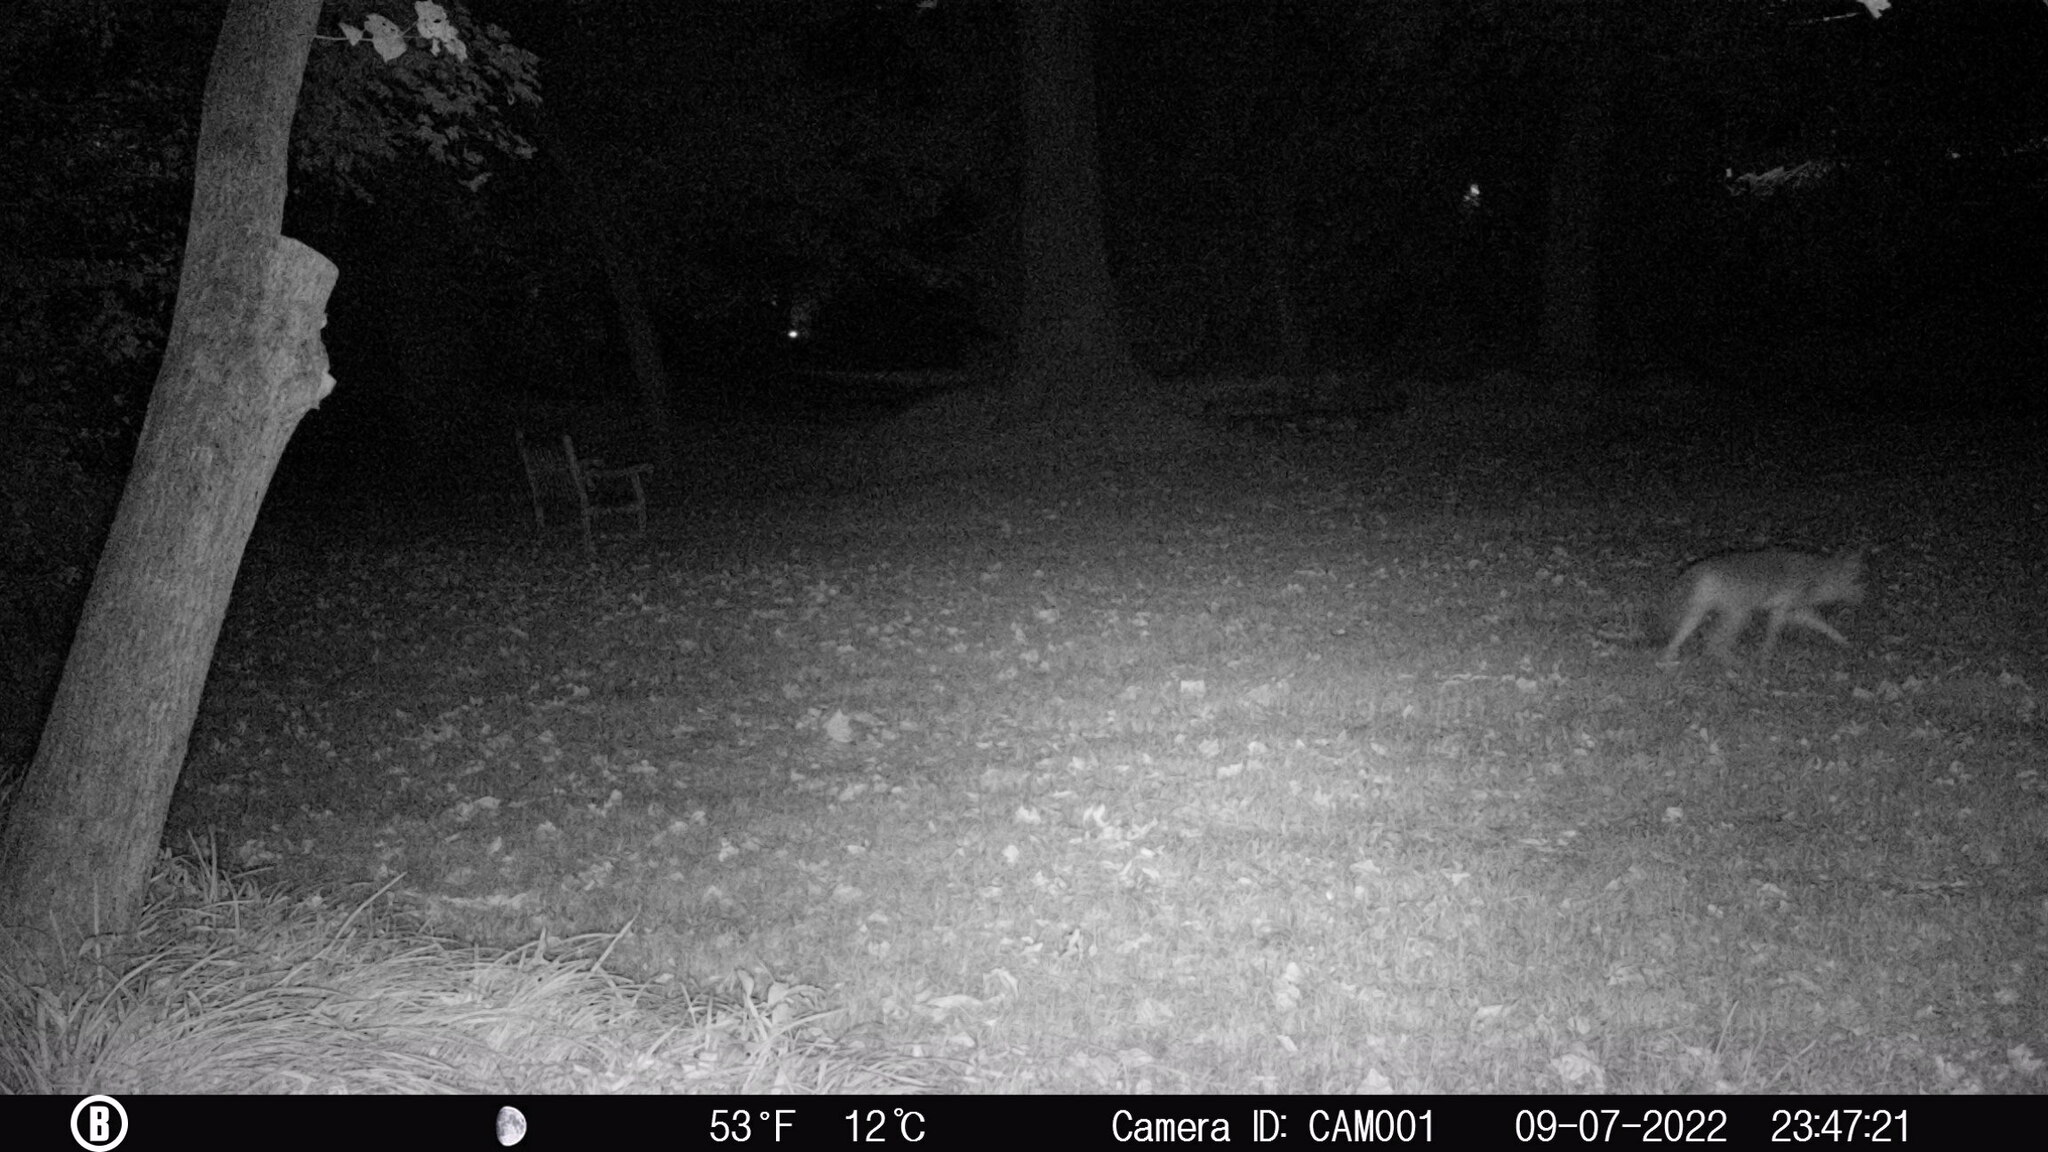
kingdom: Animalia
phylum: Chordata
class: Mammalia
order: Carnivora
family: Canidae
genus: Canis
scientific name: Canis latrans
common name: Coyote
